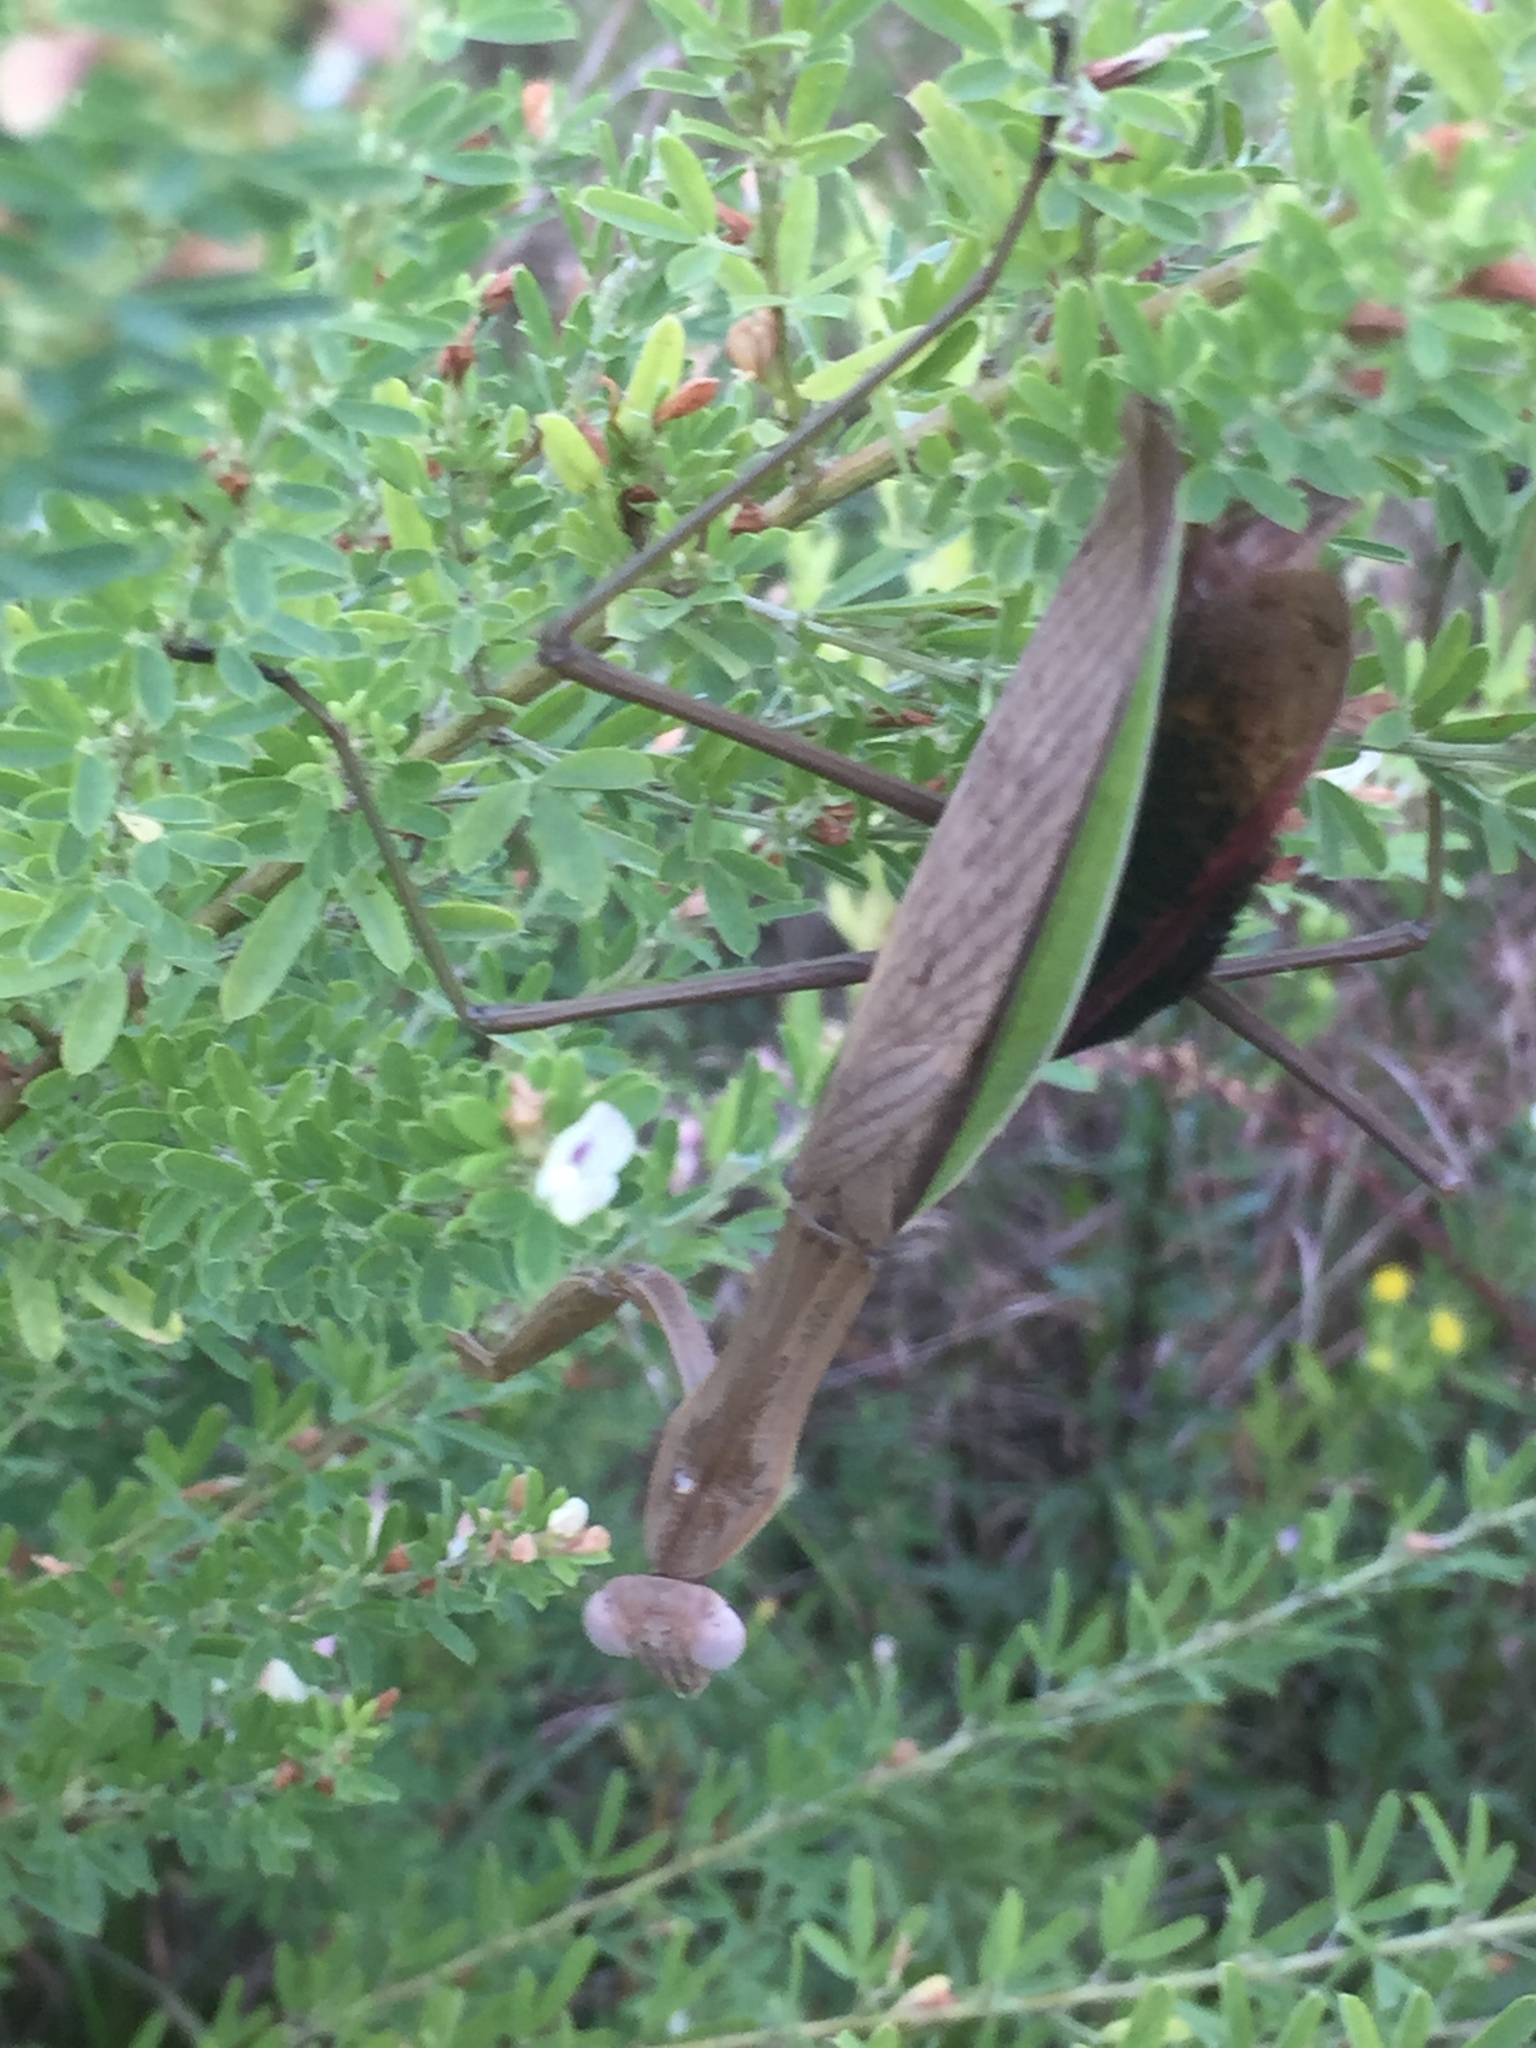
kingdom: Animalia
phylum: Arthropoda
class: Insecta
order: Mantodea
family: Mantidae
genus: Tenodera
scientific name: Tenodera sinensis
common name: Chinese mantis
